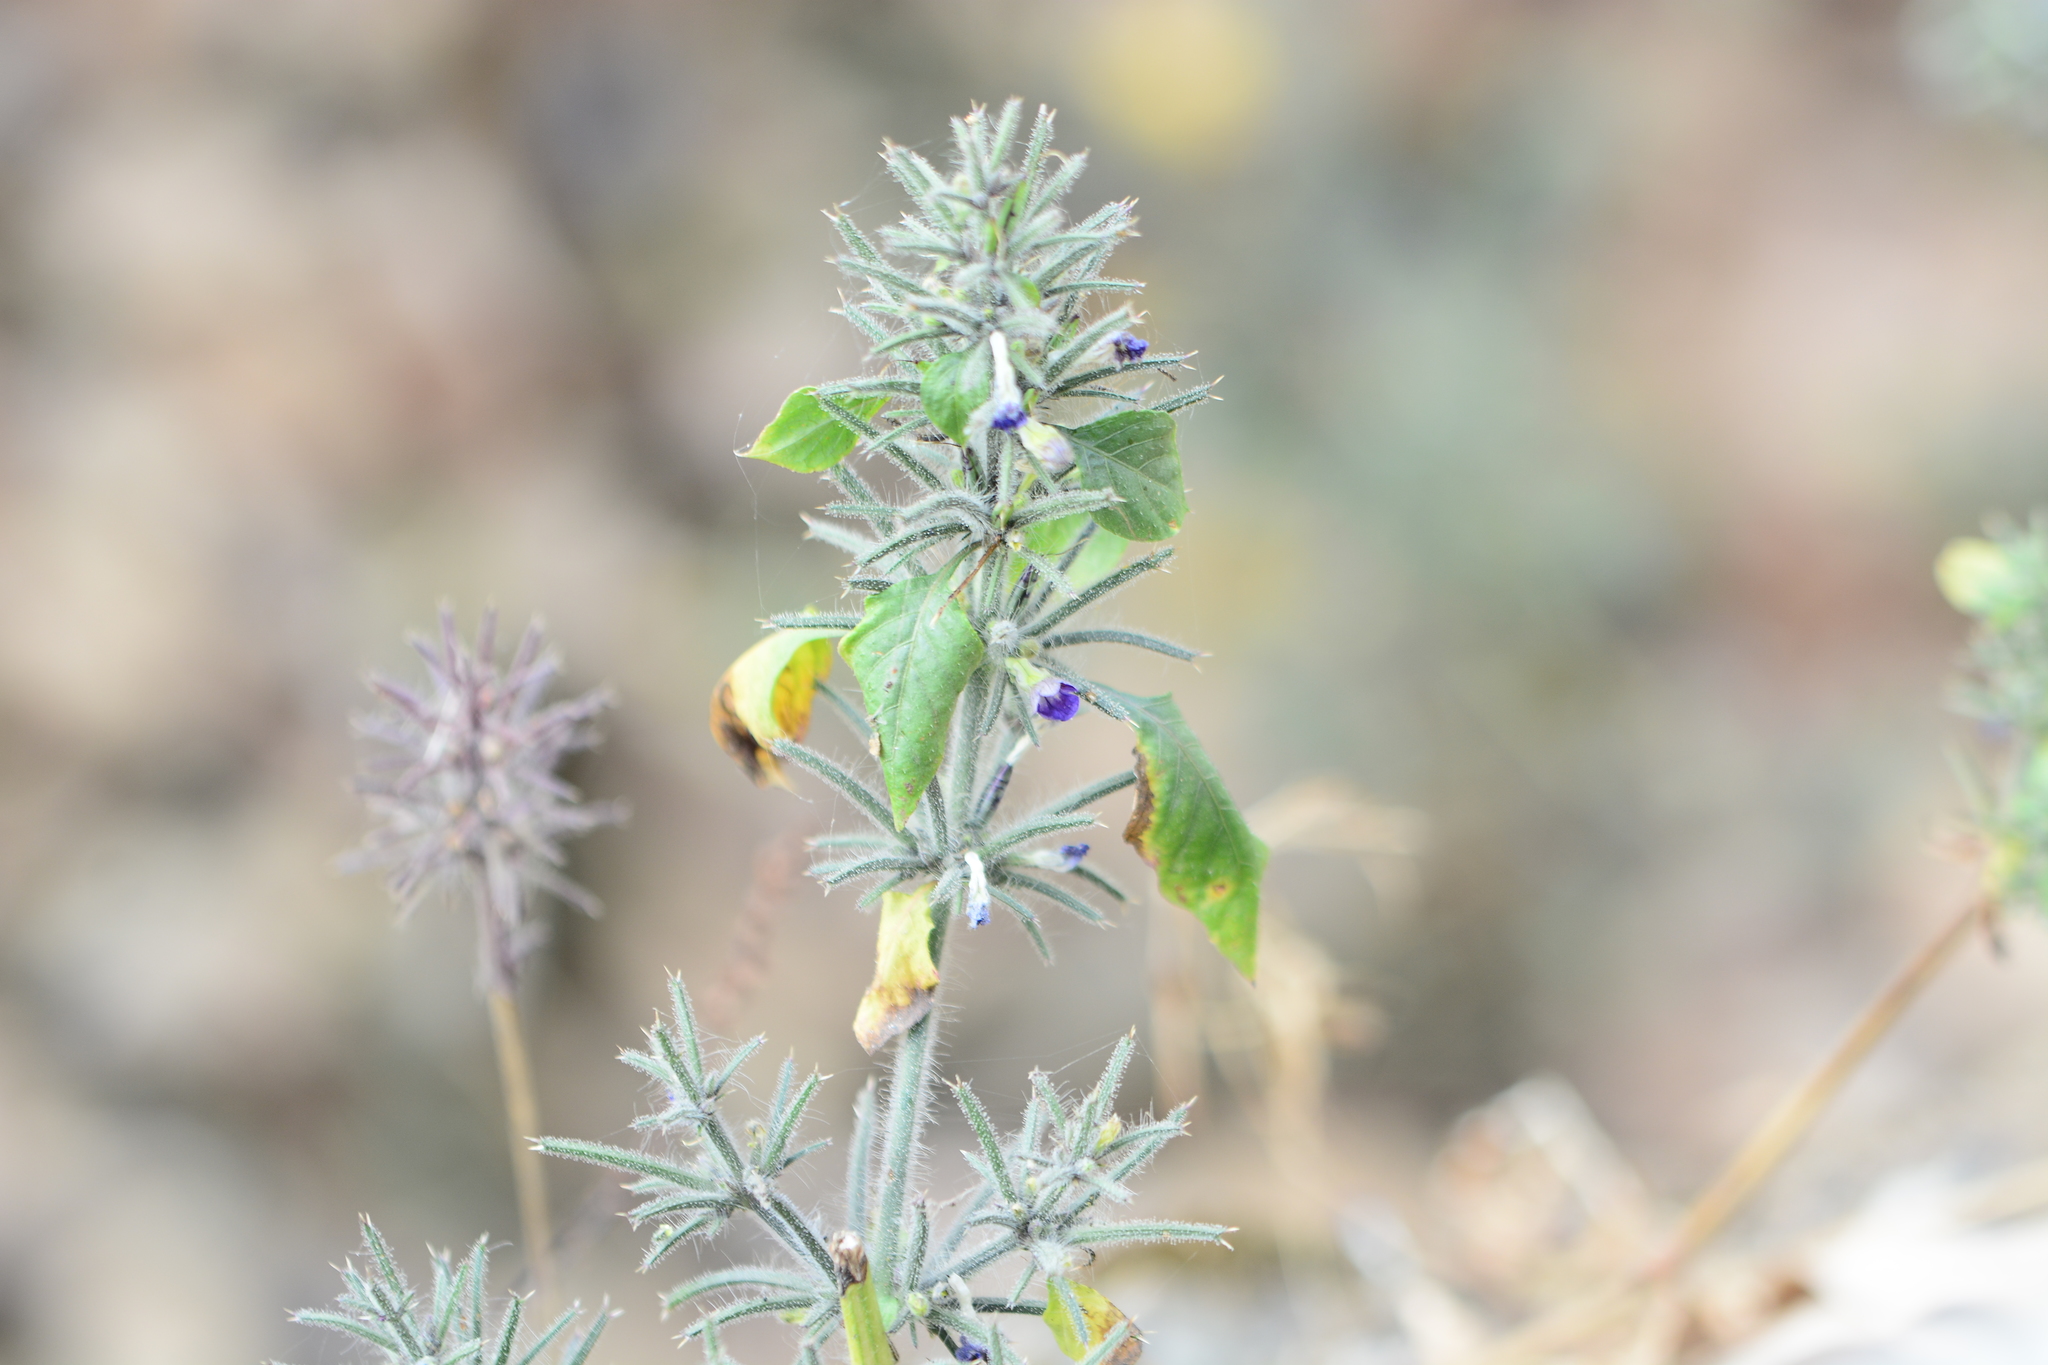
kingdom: Plantae
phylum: Tracheophyta
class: Magnoliopsida
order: Lamiales
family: Acanthaceae
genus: Haplanthodes
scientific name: Haplanthodes verticillatus
